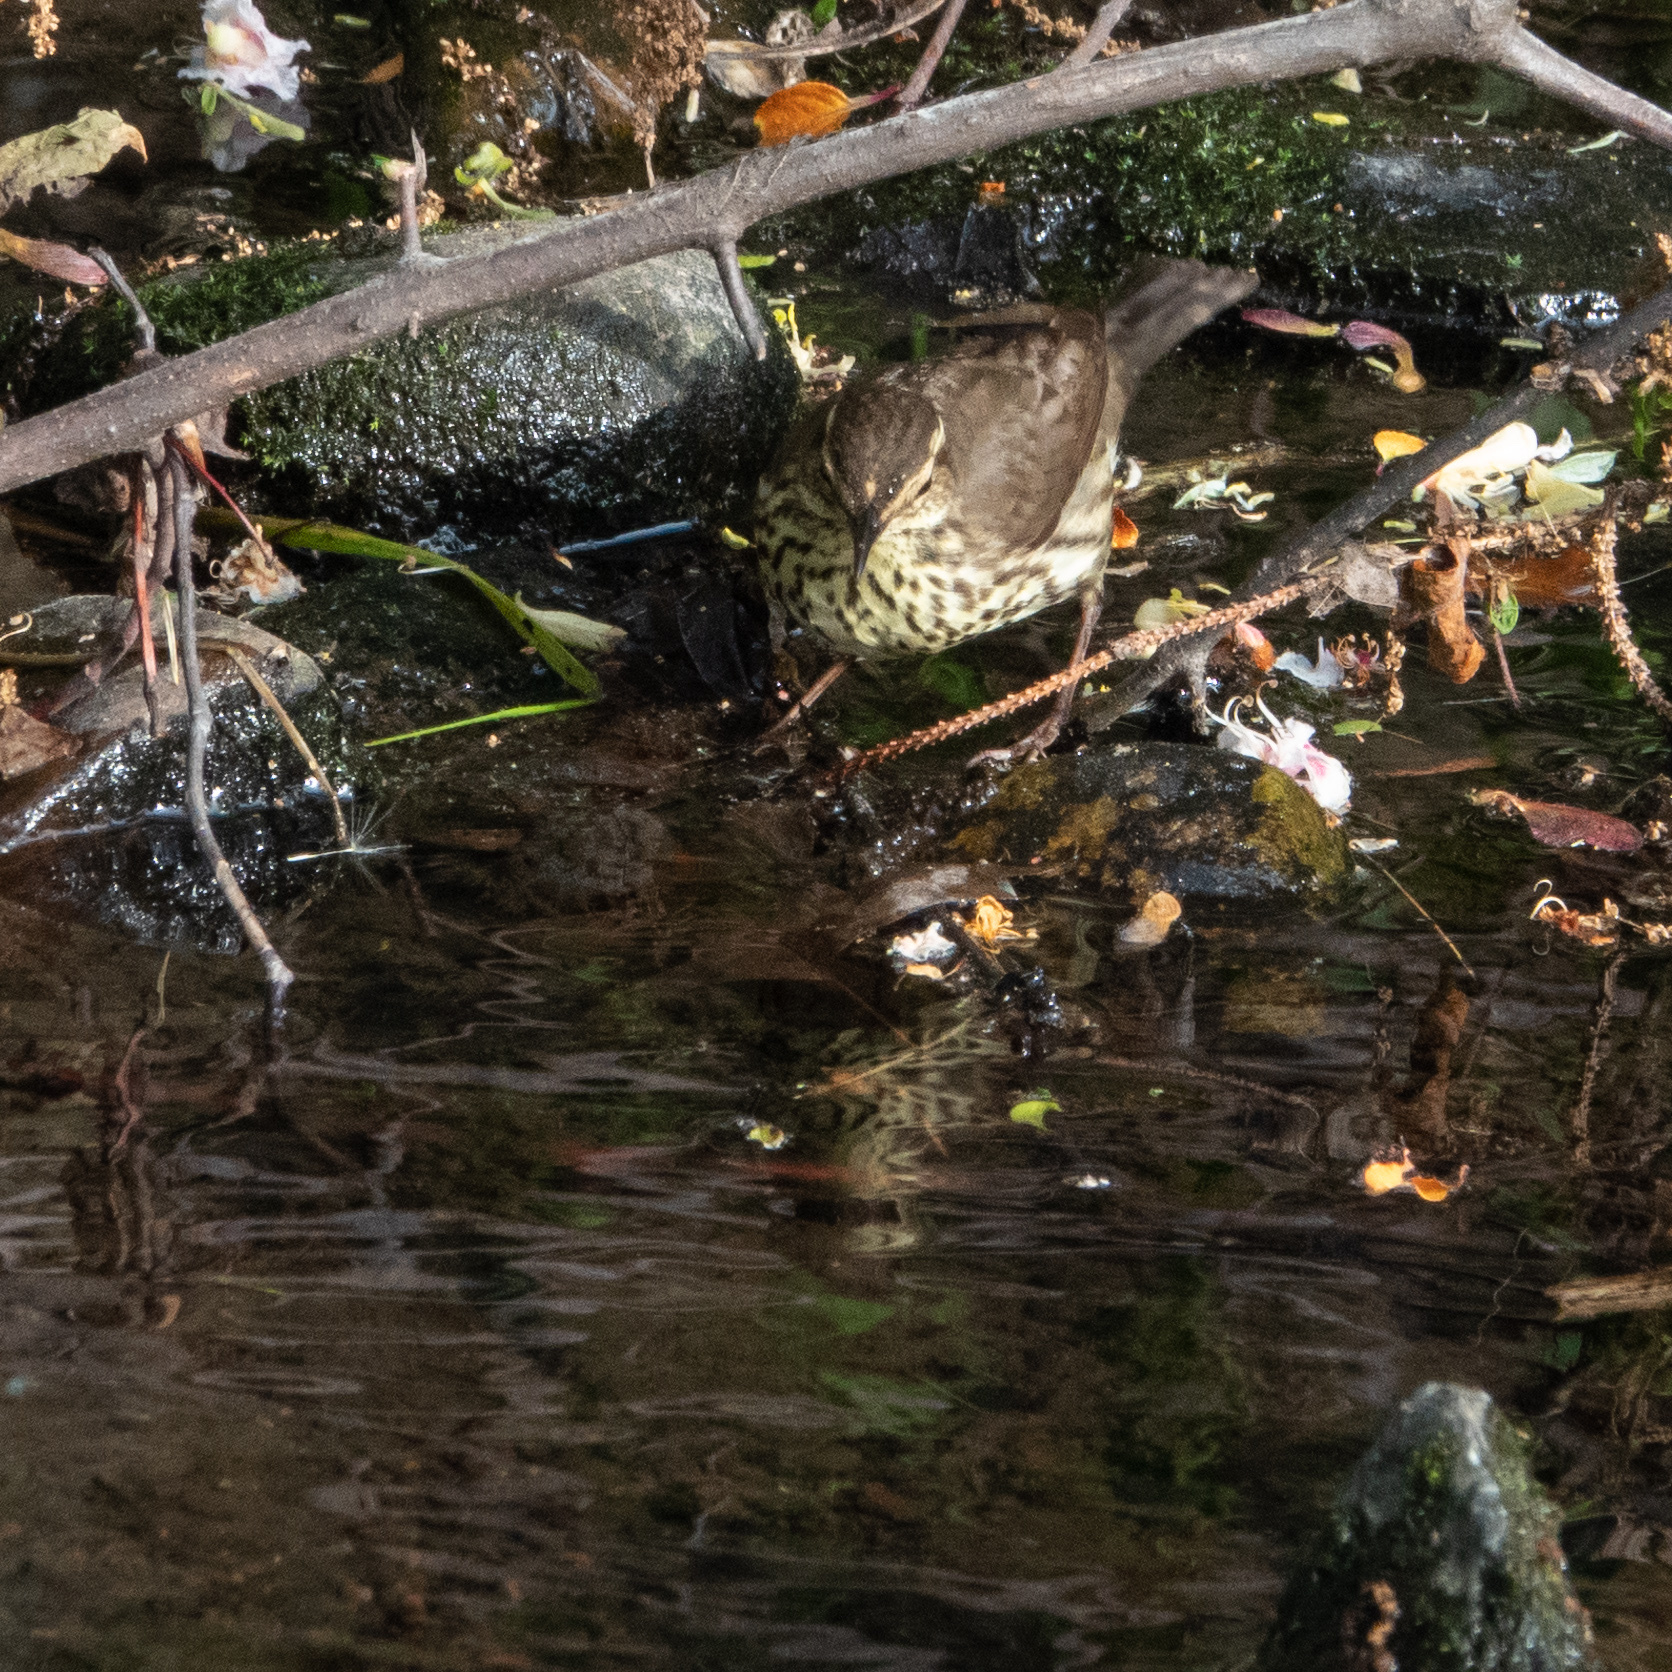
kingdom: Animalia
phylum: Chordata
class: Aves
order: Passeriformes
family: Parulidae
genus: Parkesia
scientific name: Parkesia noveboracensis
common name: Northern waterthrush
